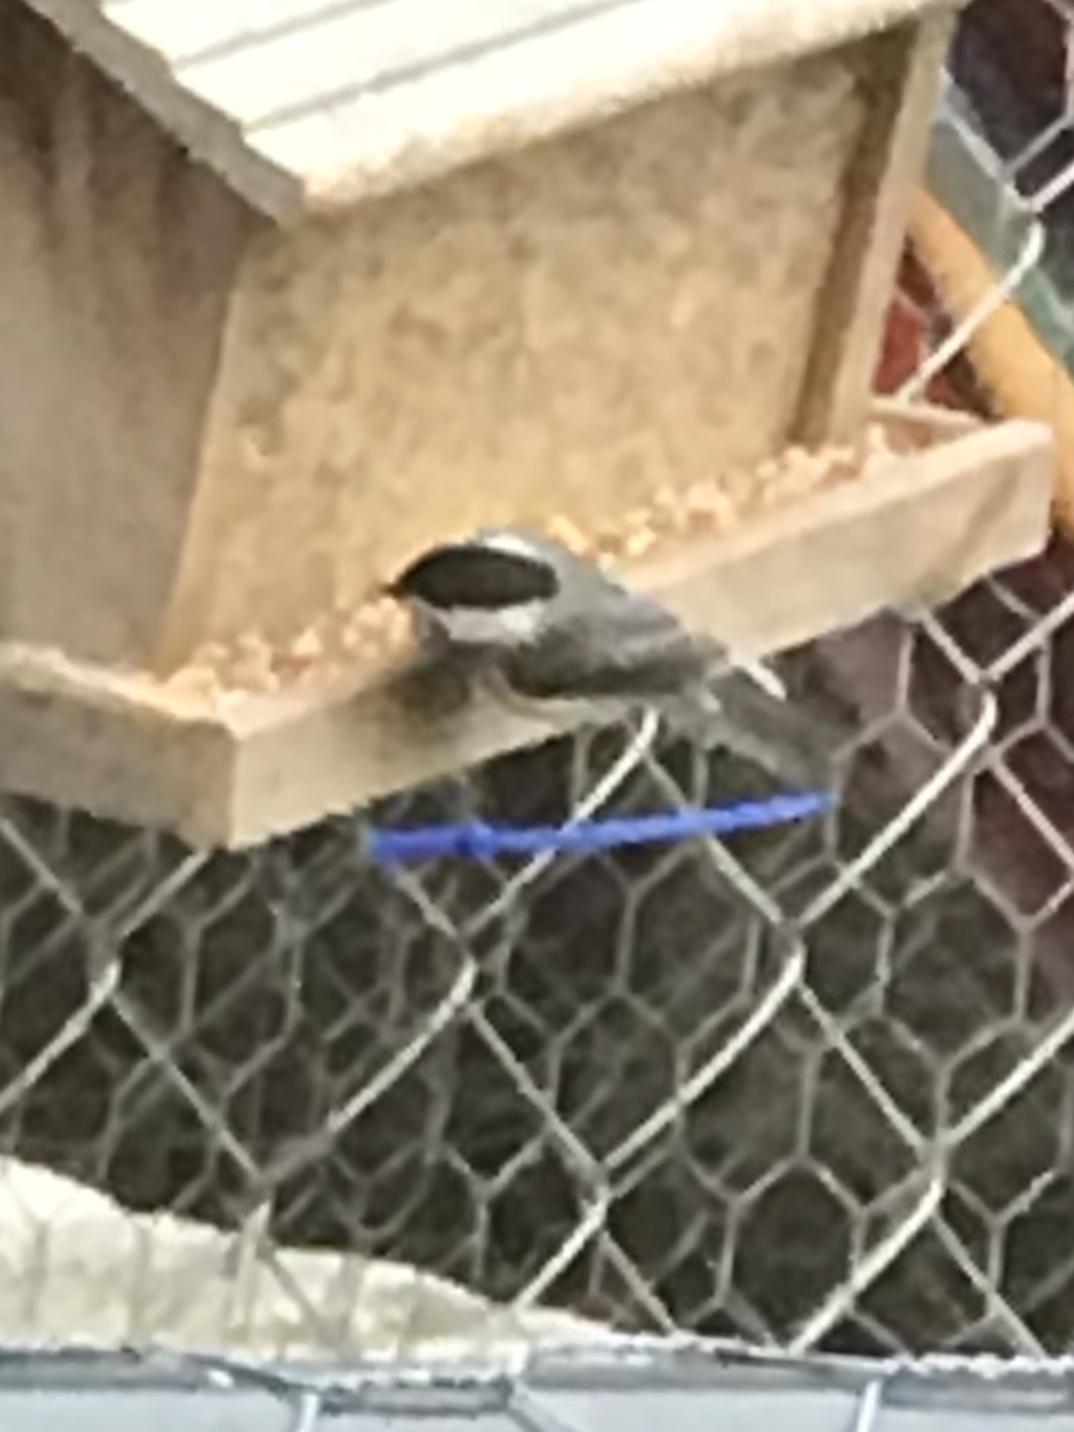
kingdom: Animalia
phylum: Chordata
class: Aves
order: Passeriformes
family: Paridae
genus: Poecile
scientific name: Poecile carolinensis
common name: Carolina chickadee
